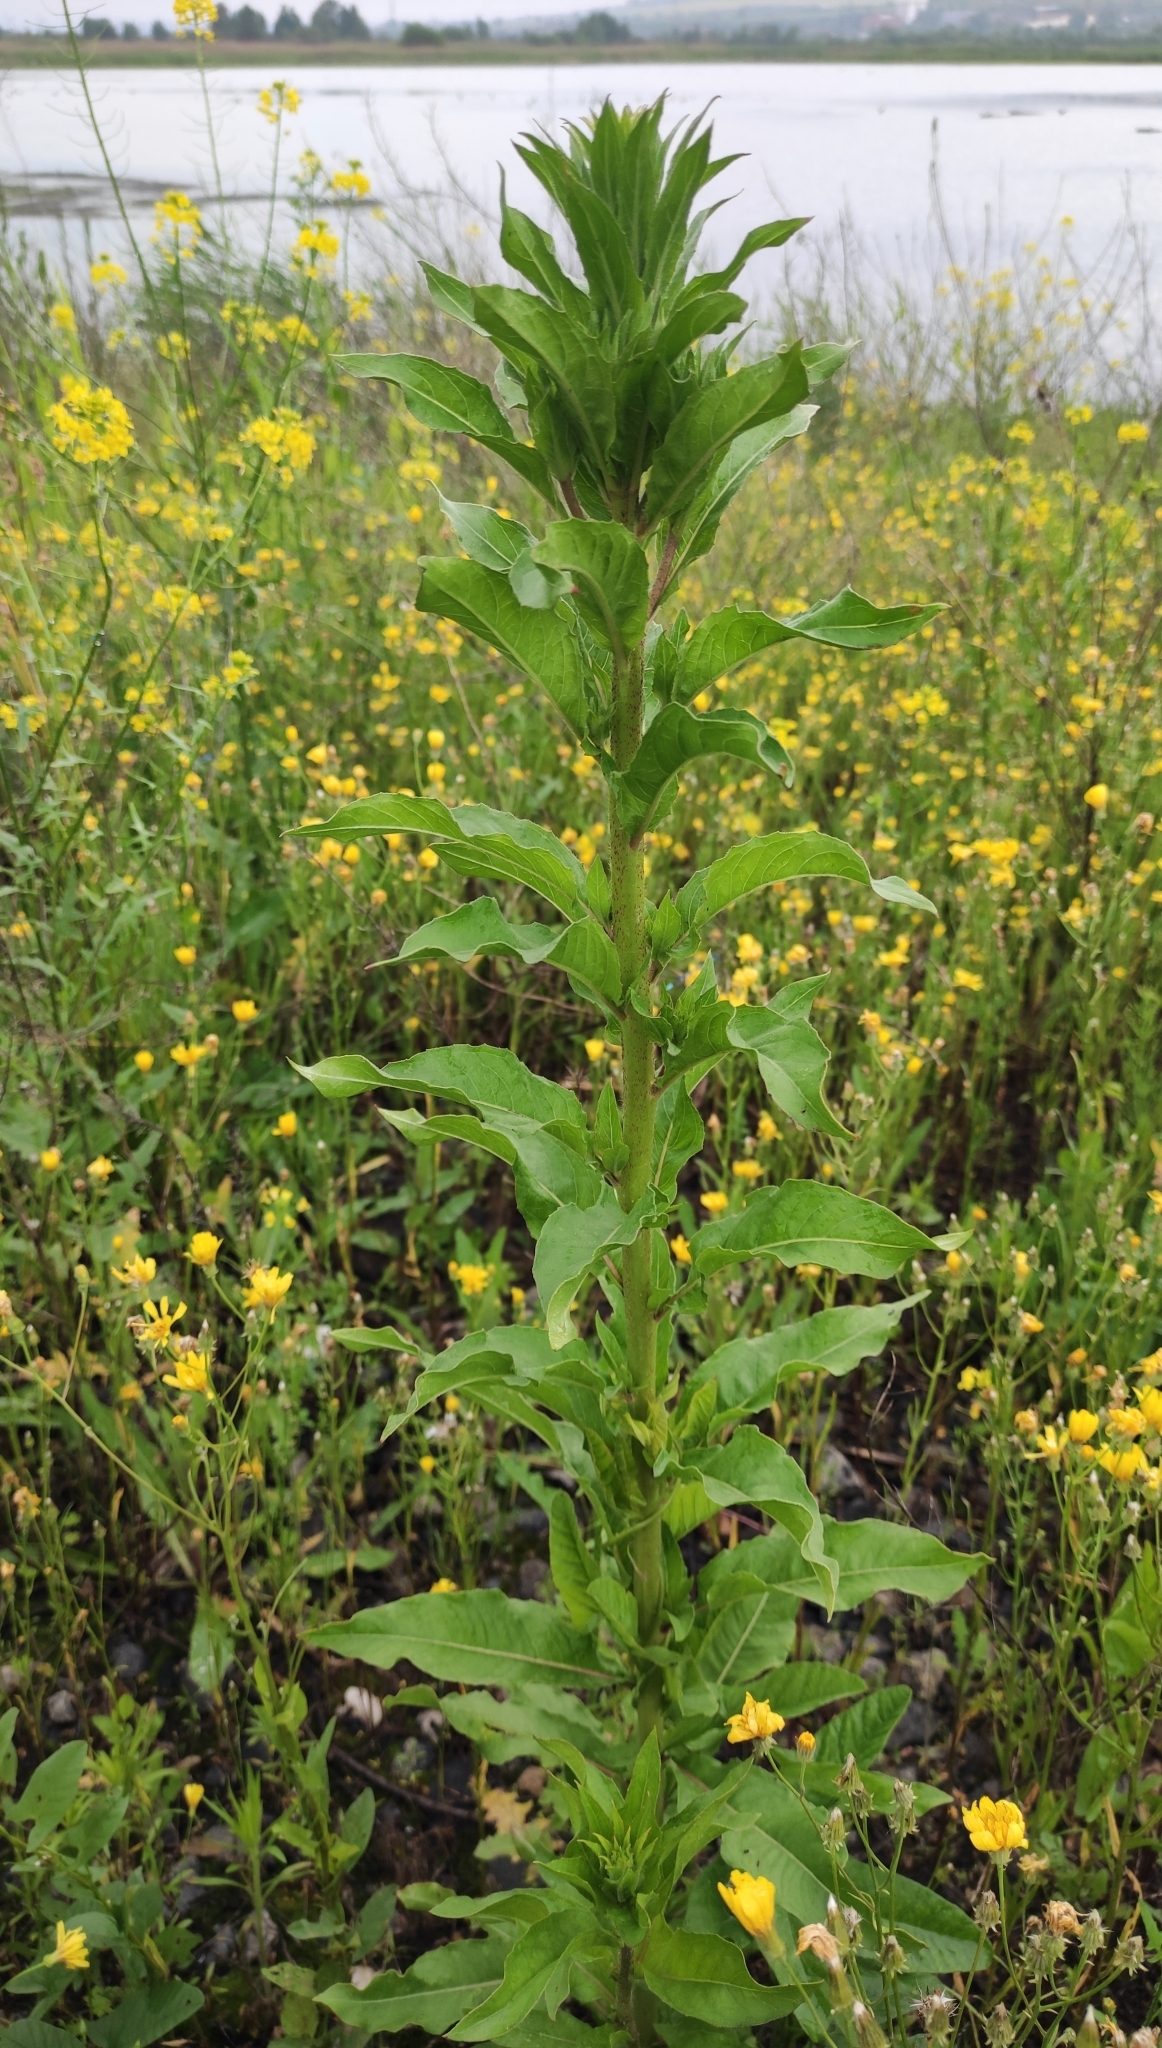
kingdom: Plantae
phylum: Tracheophyta
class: Magnoliopsida
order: Myrtales
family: Onagraceae
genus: Oenothera
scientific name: Oenothera rubricaulis
